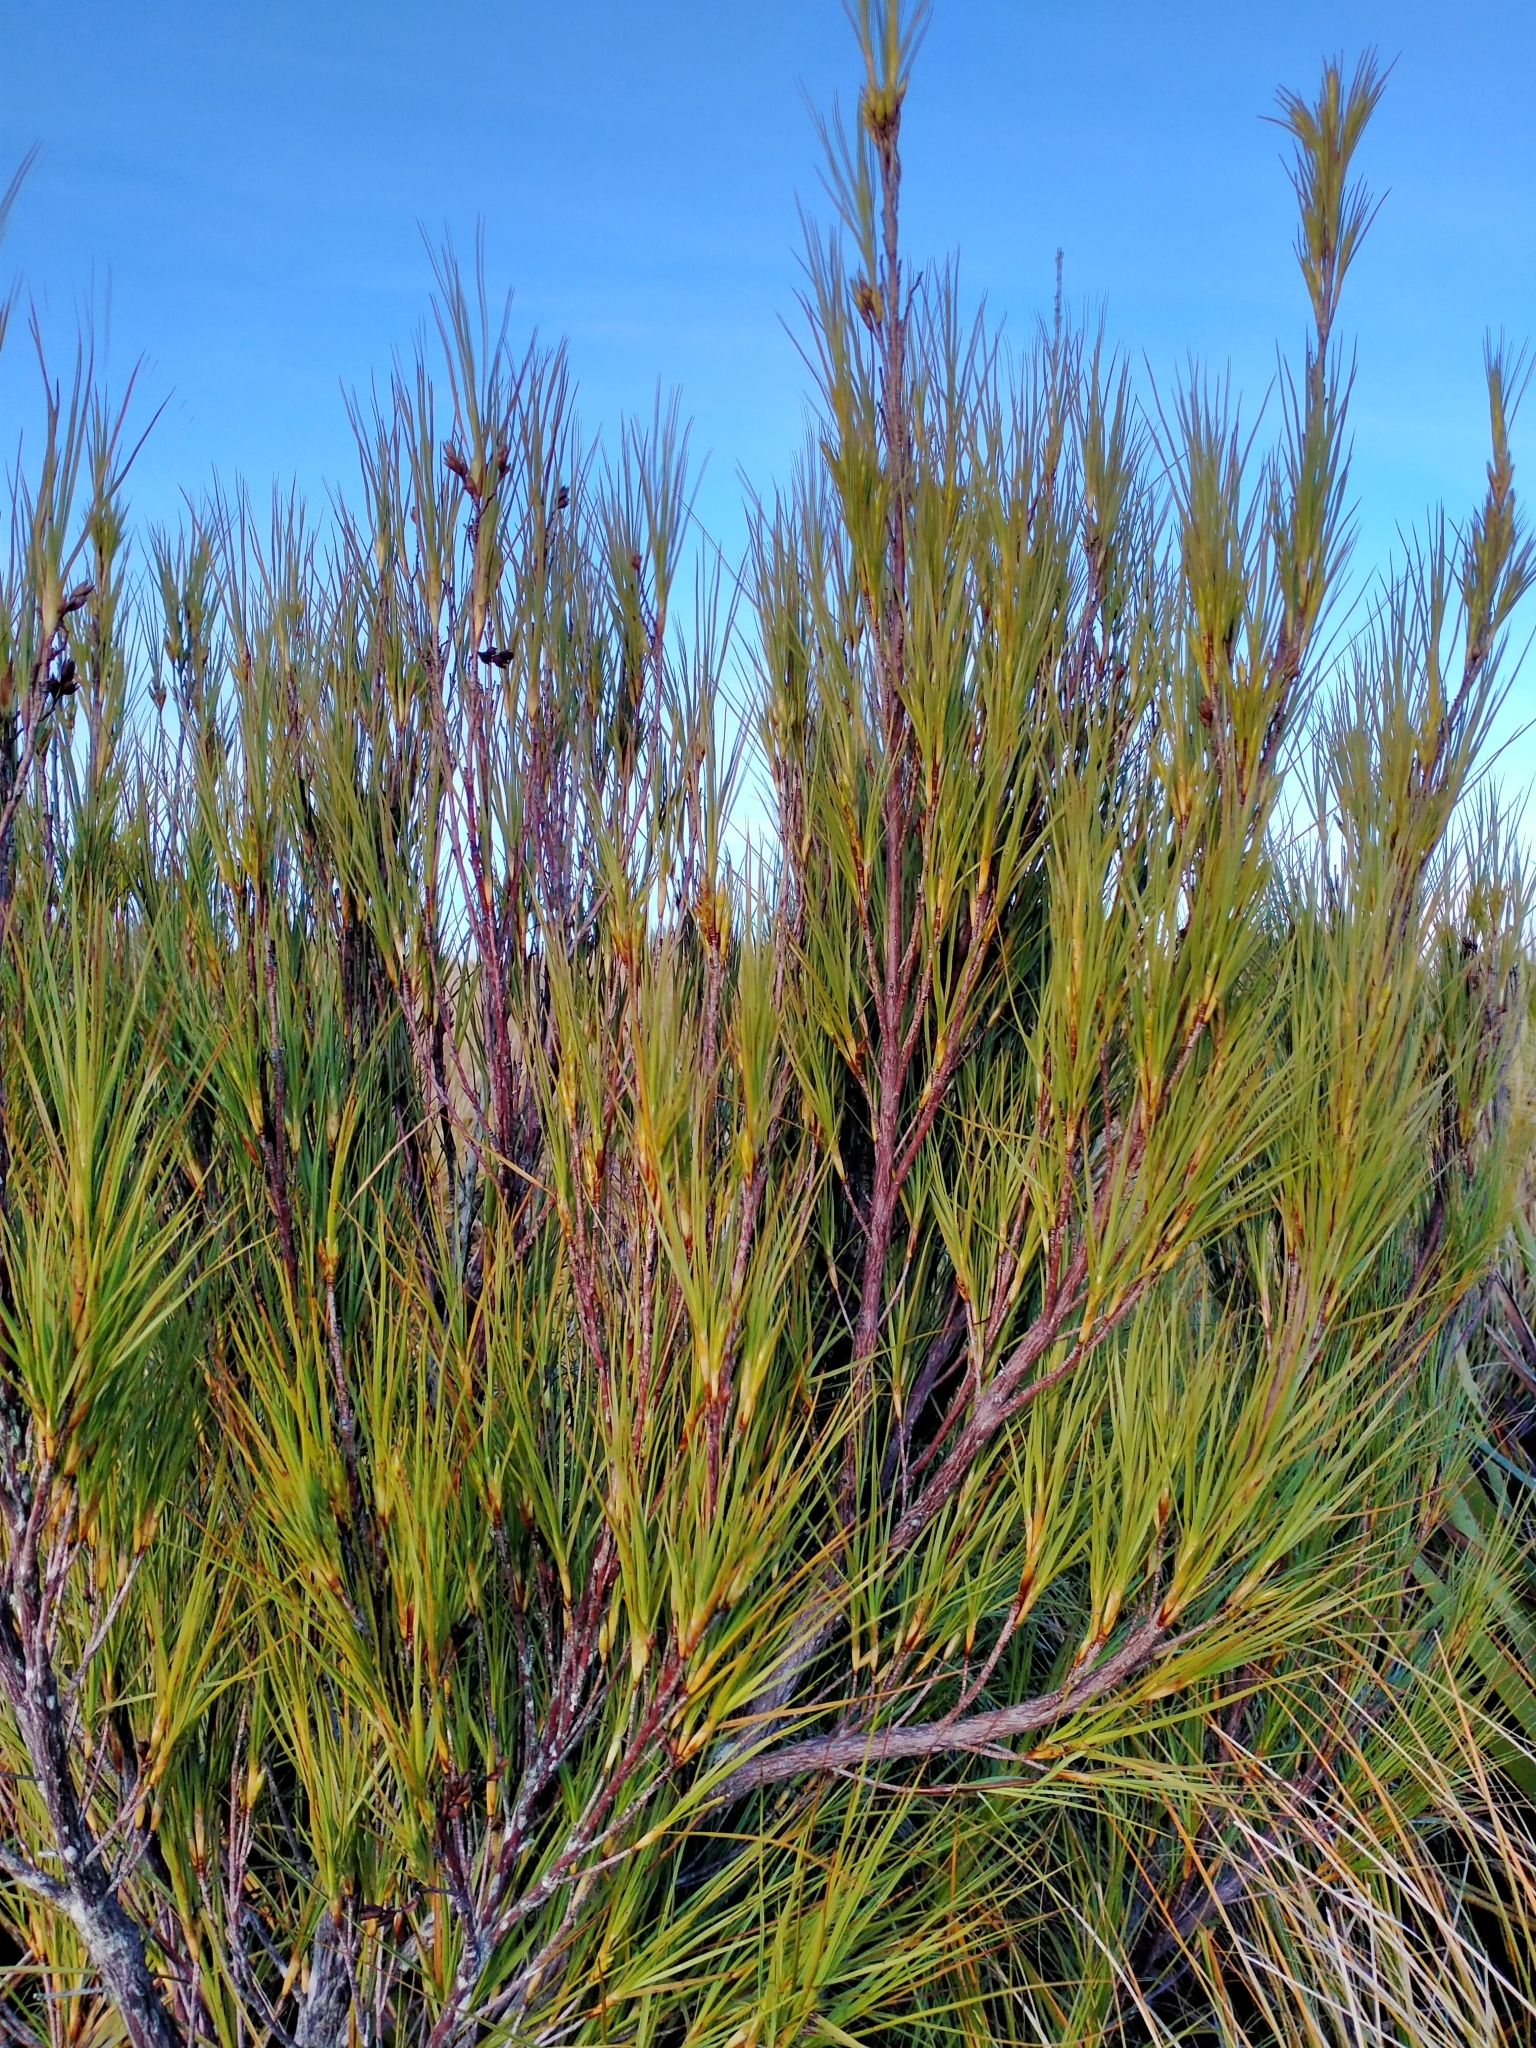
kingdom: Plantae
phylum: Tracheophyta
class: Magnoliopsida
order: Ericales
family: Ericaceae
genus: Dracophyllum
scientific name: Dracophyllum longifolium
